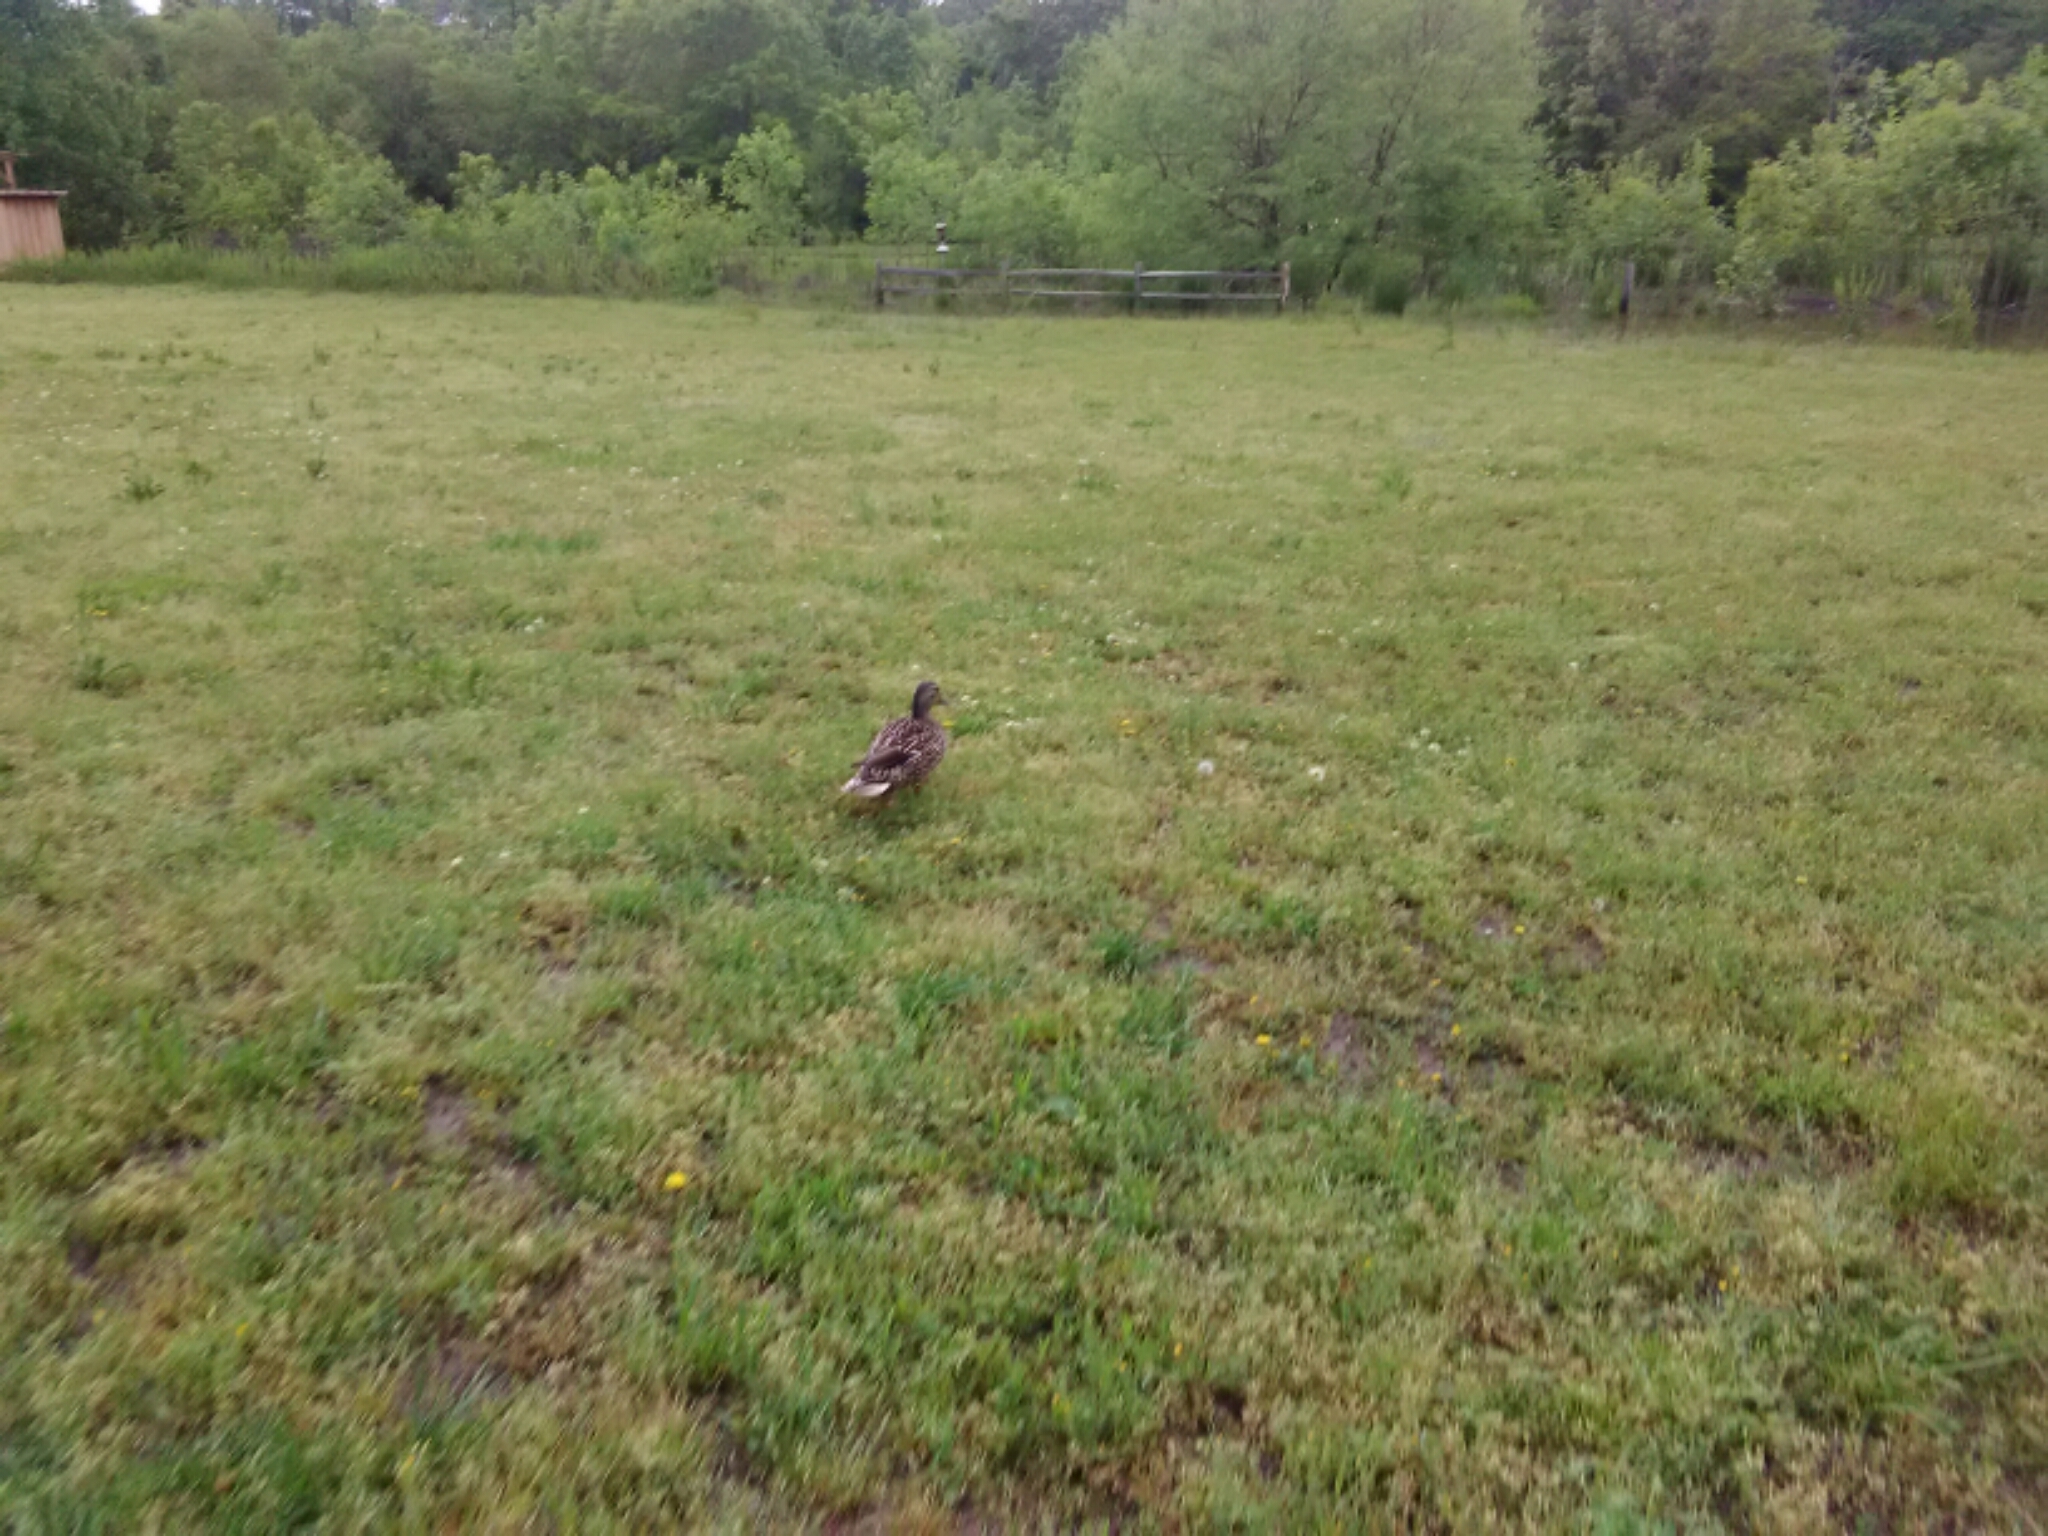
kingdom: Animalia
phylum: Chordata
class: Aves
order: Anseriformes
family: Anatidae
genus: Anas
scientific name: Anas platyrhynchos
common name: Mallard
